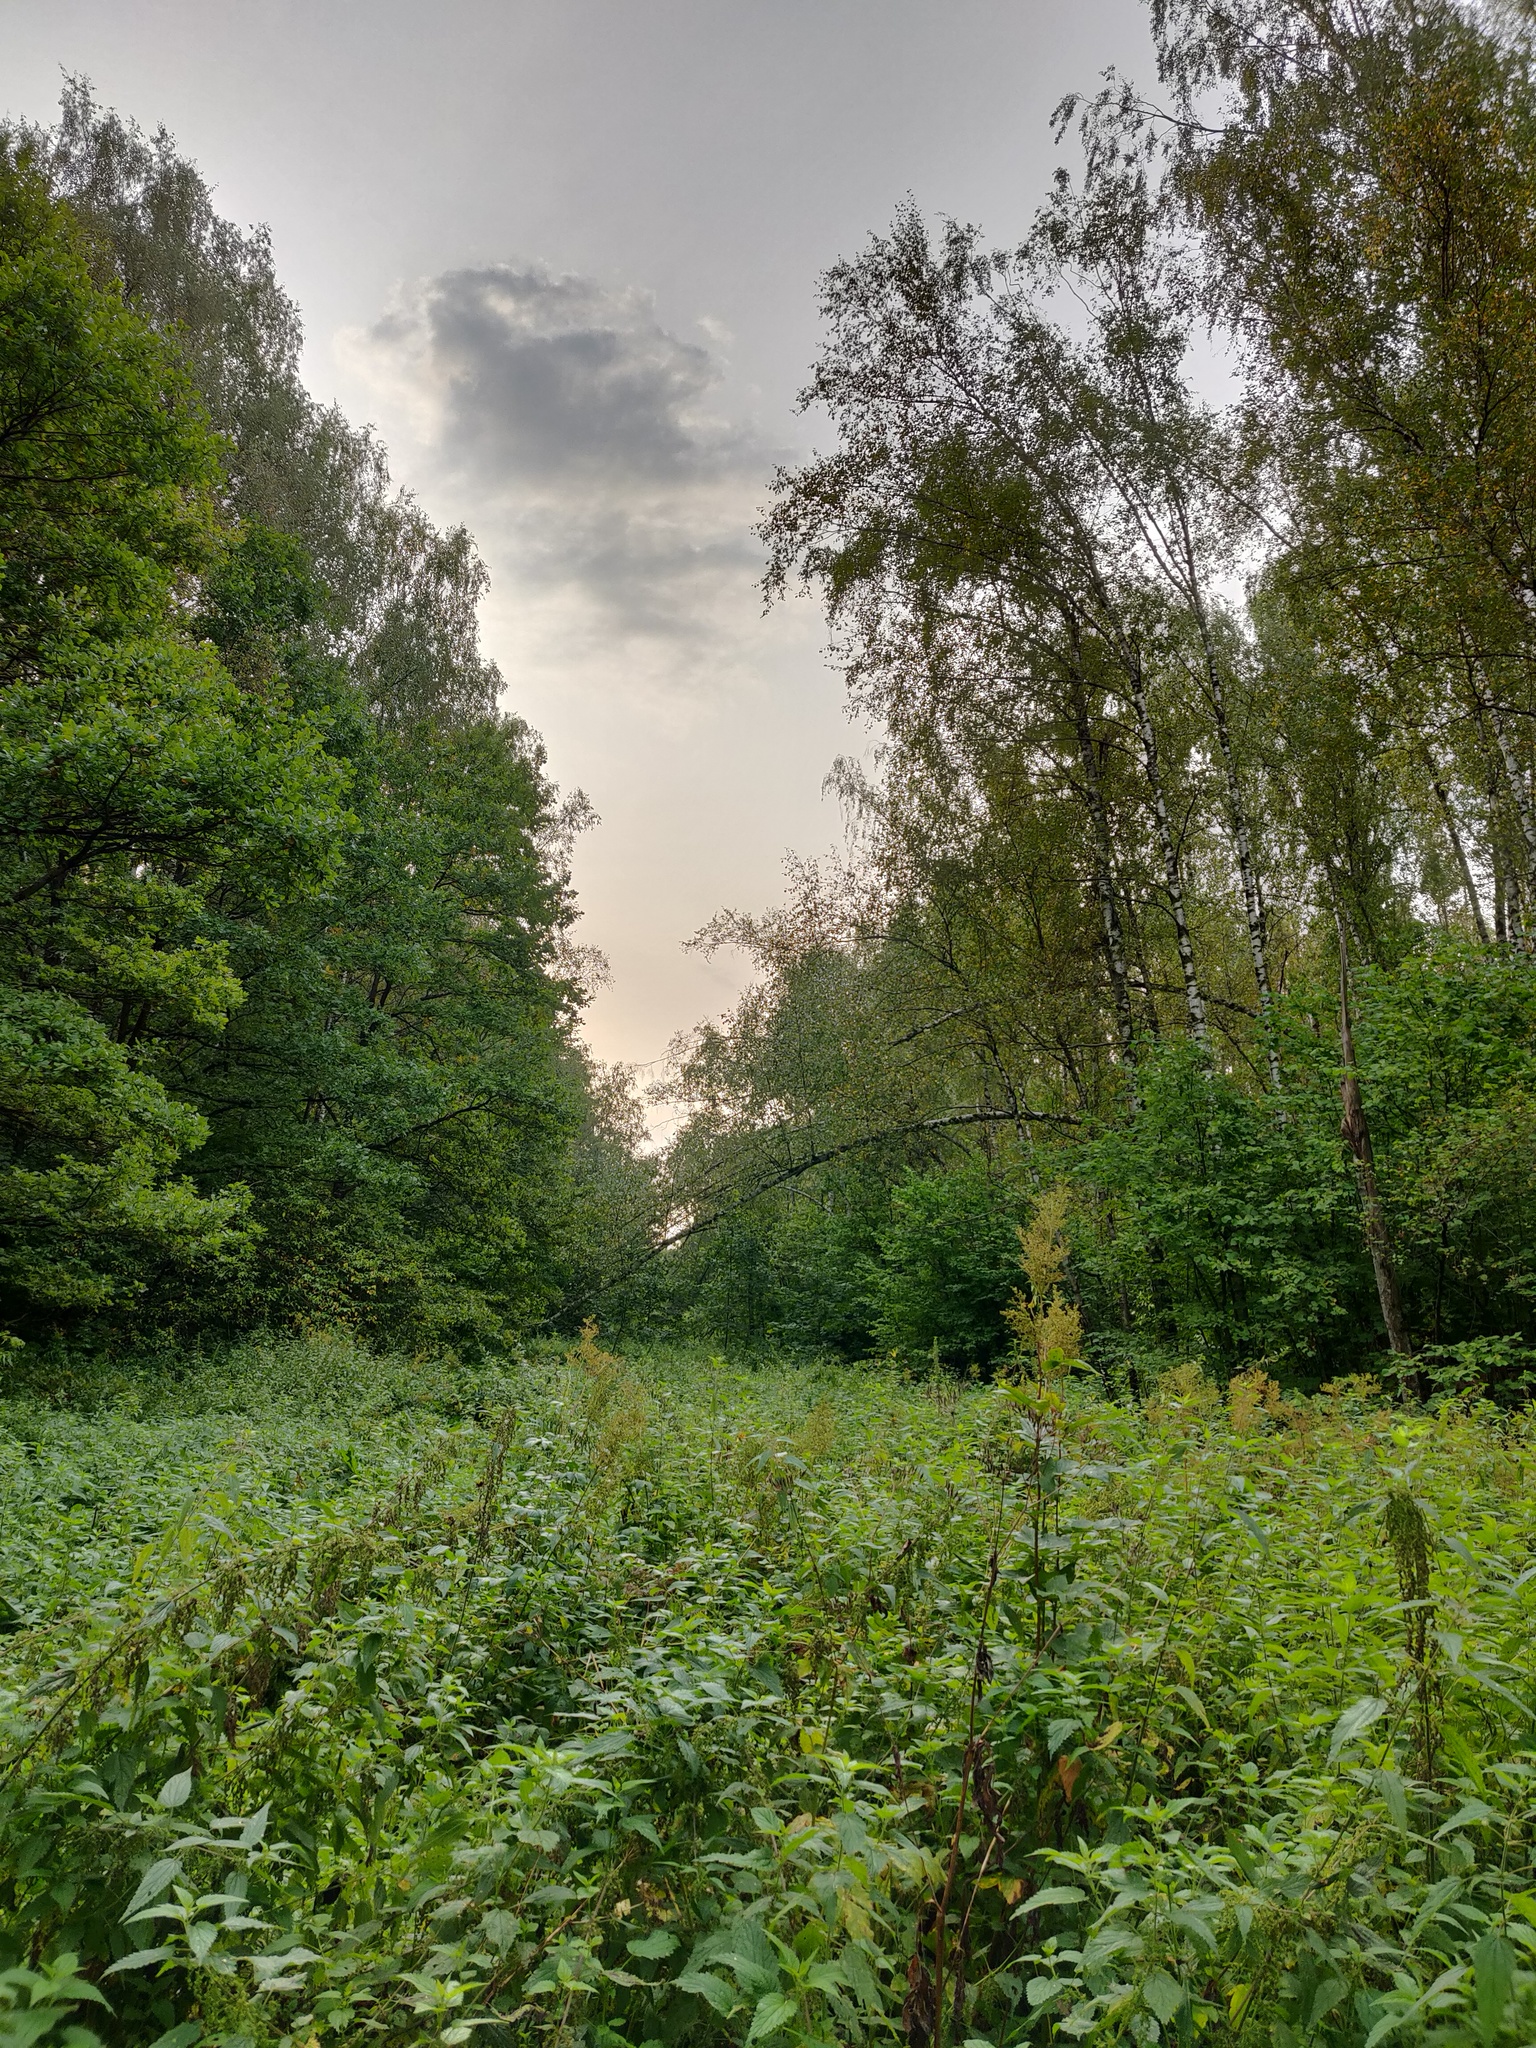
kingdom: Plantae
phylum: Tracheophyta
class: Magnoliopsida
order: Rosales
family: Rosaceae
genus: Filipendula
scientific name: Filipendula ulmaria
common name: Meadowsweet
